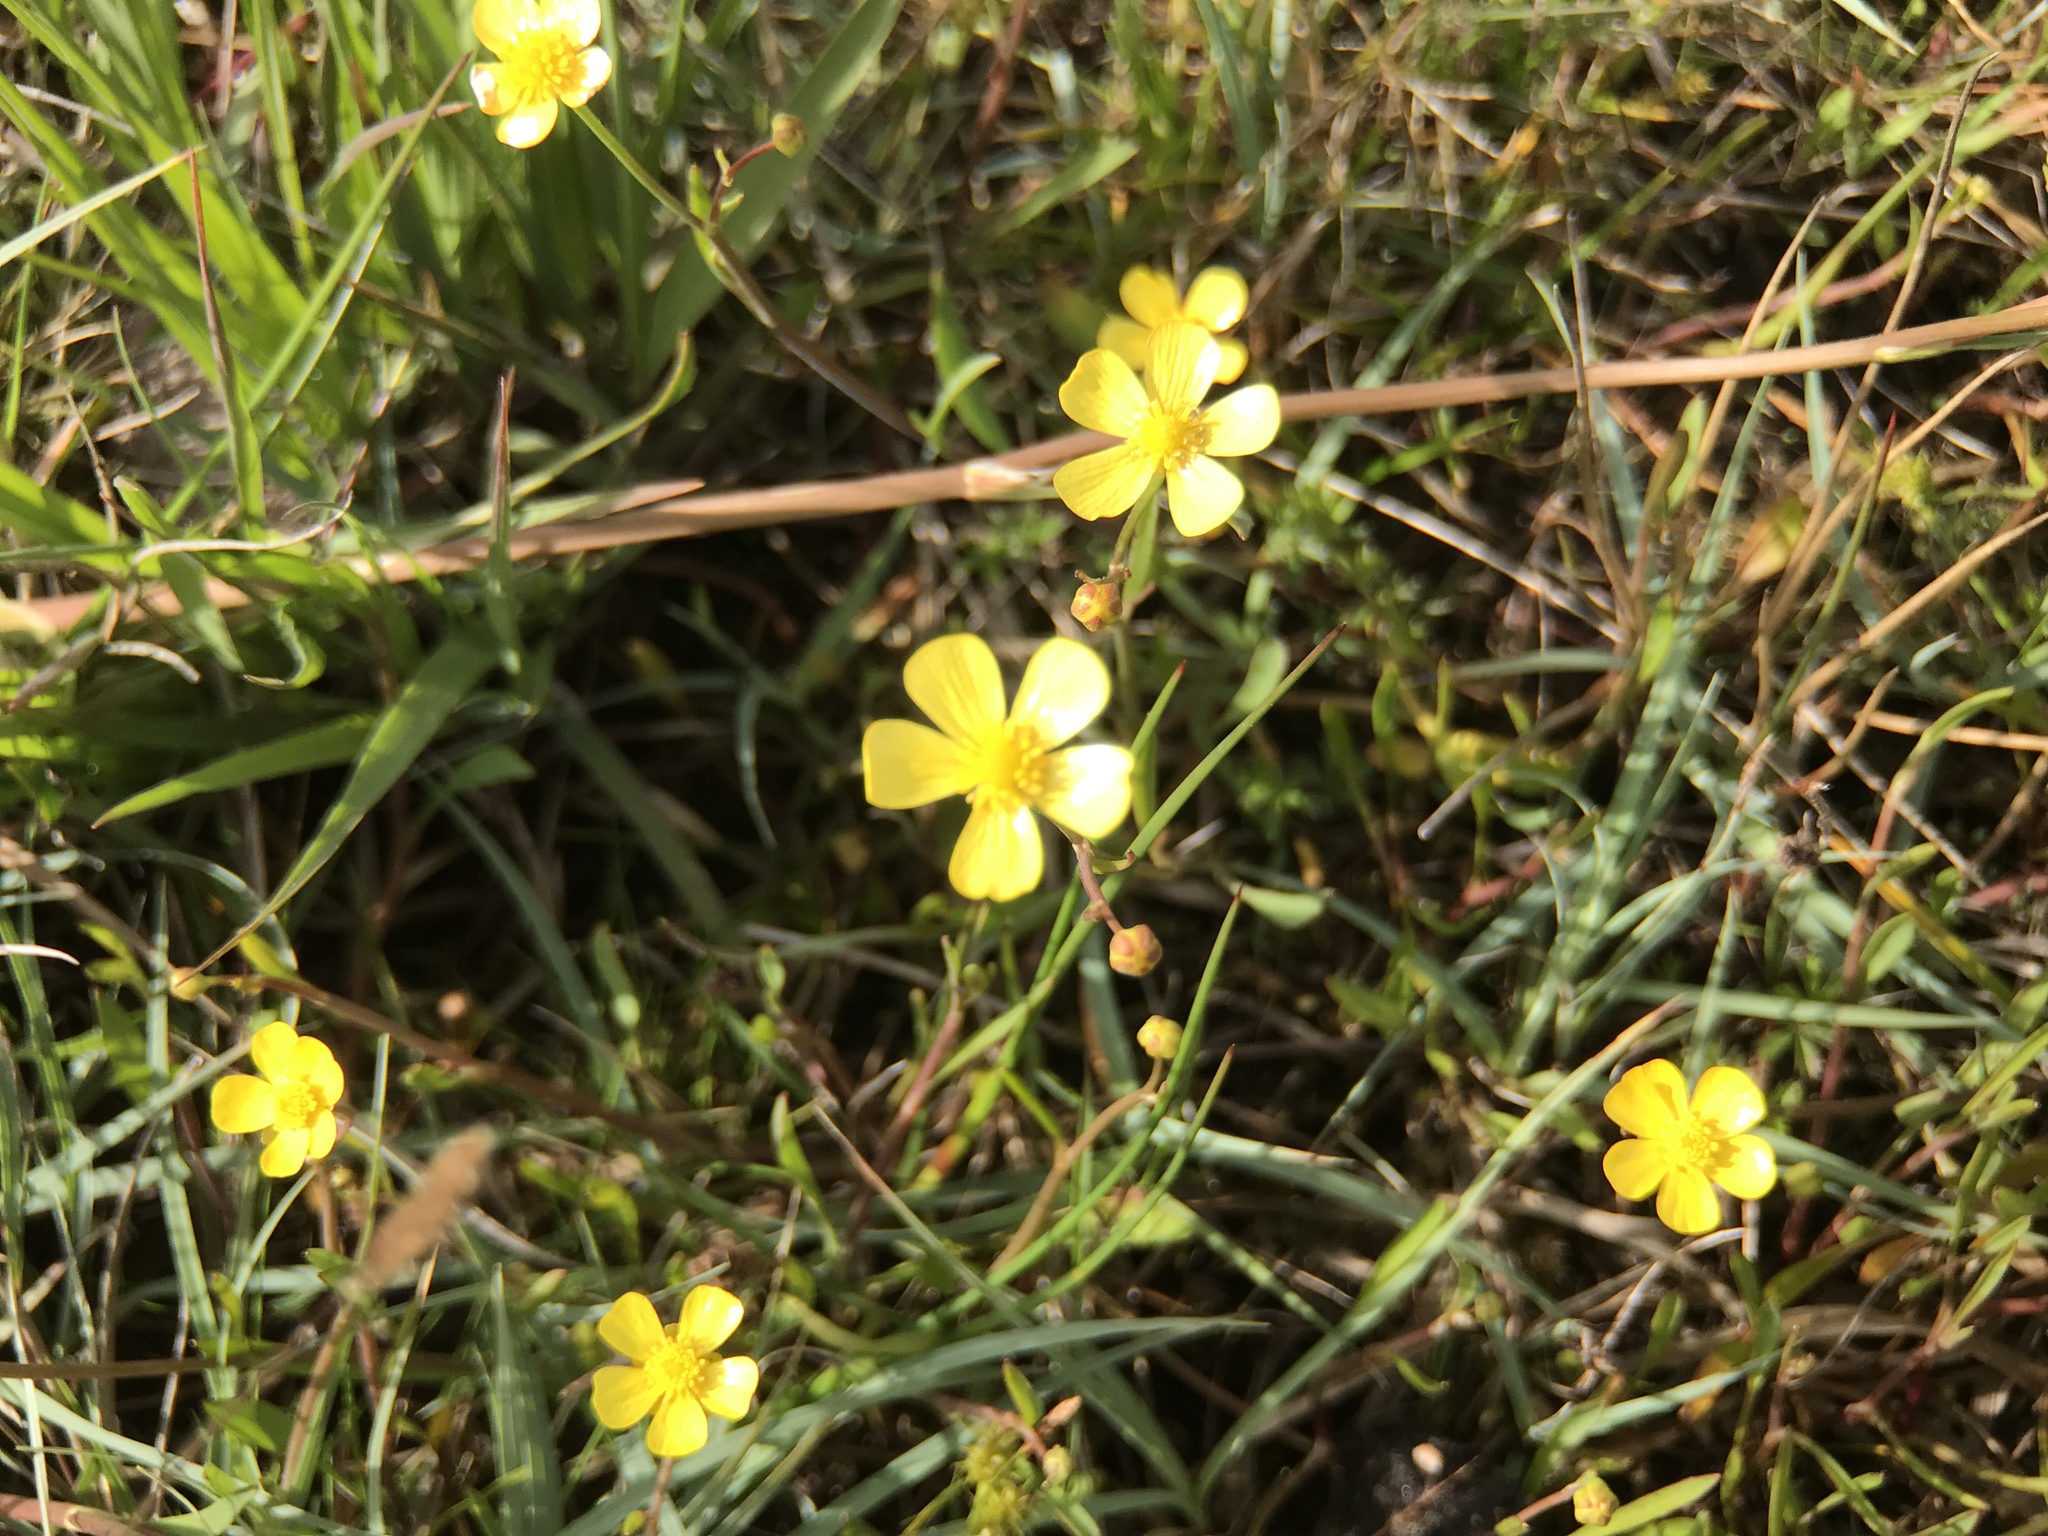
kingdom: Plantae
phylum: Tracheophyta
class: Magnoliopsida
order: Ranunculales
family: Ranunculaceae
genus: Ranunculus
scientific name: Ranunculus flammula
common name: Lesser spearwort
